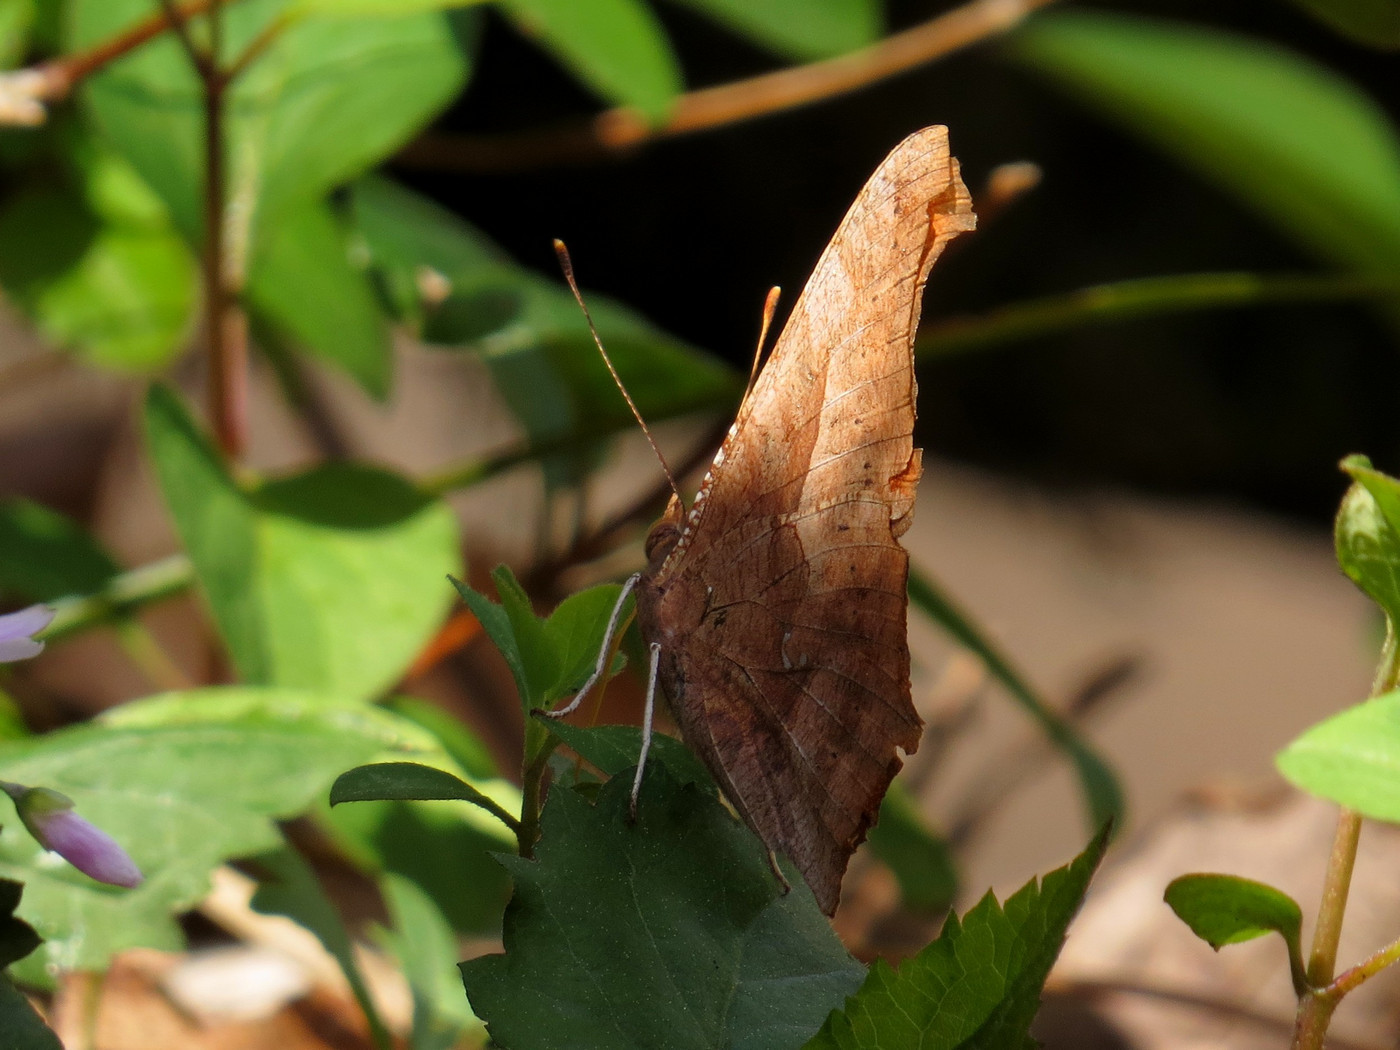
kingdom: Animalia
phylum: Arthropoda
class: Insecta
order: Lepidoptera
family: Nymphalidae
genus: Polygonia
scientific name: Polygonia interrogationis
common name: Question mark
